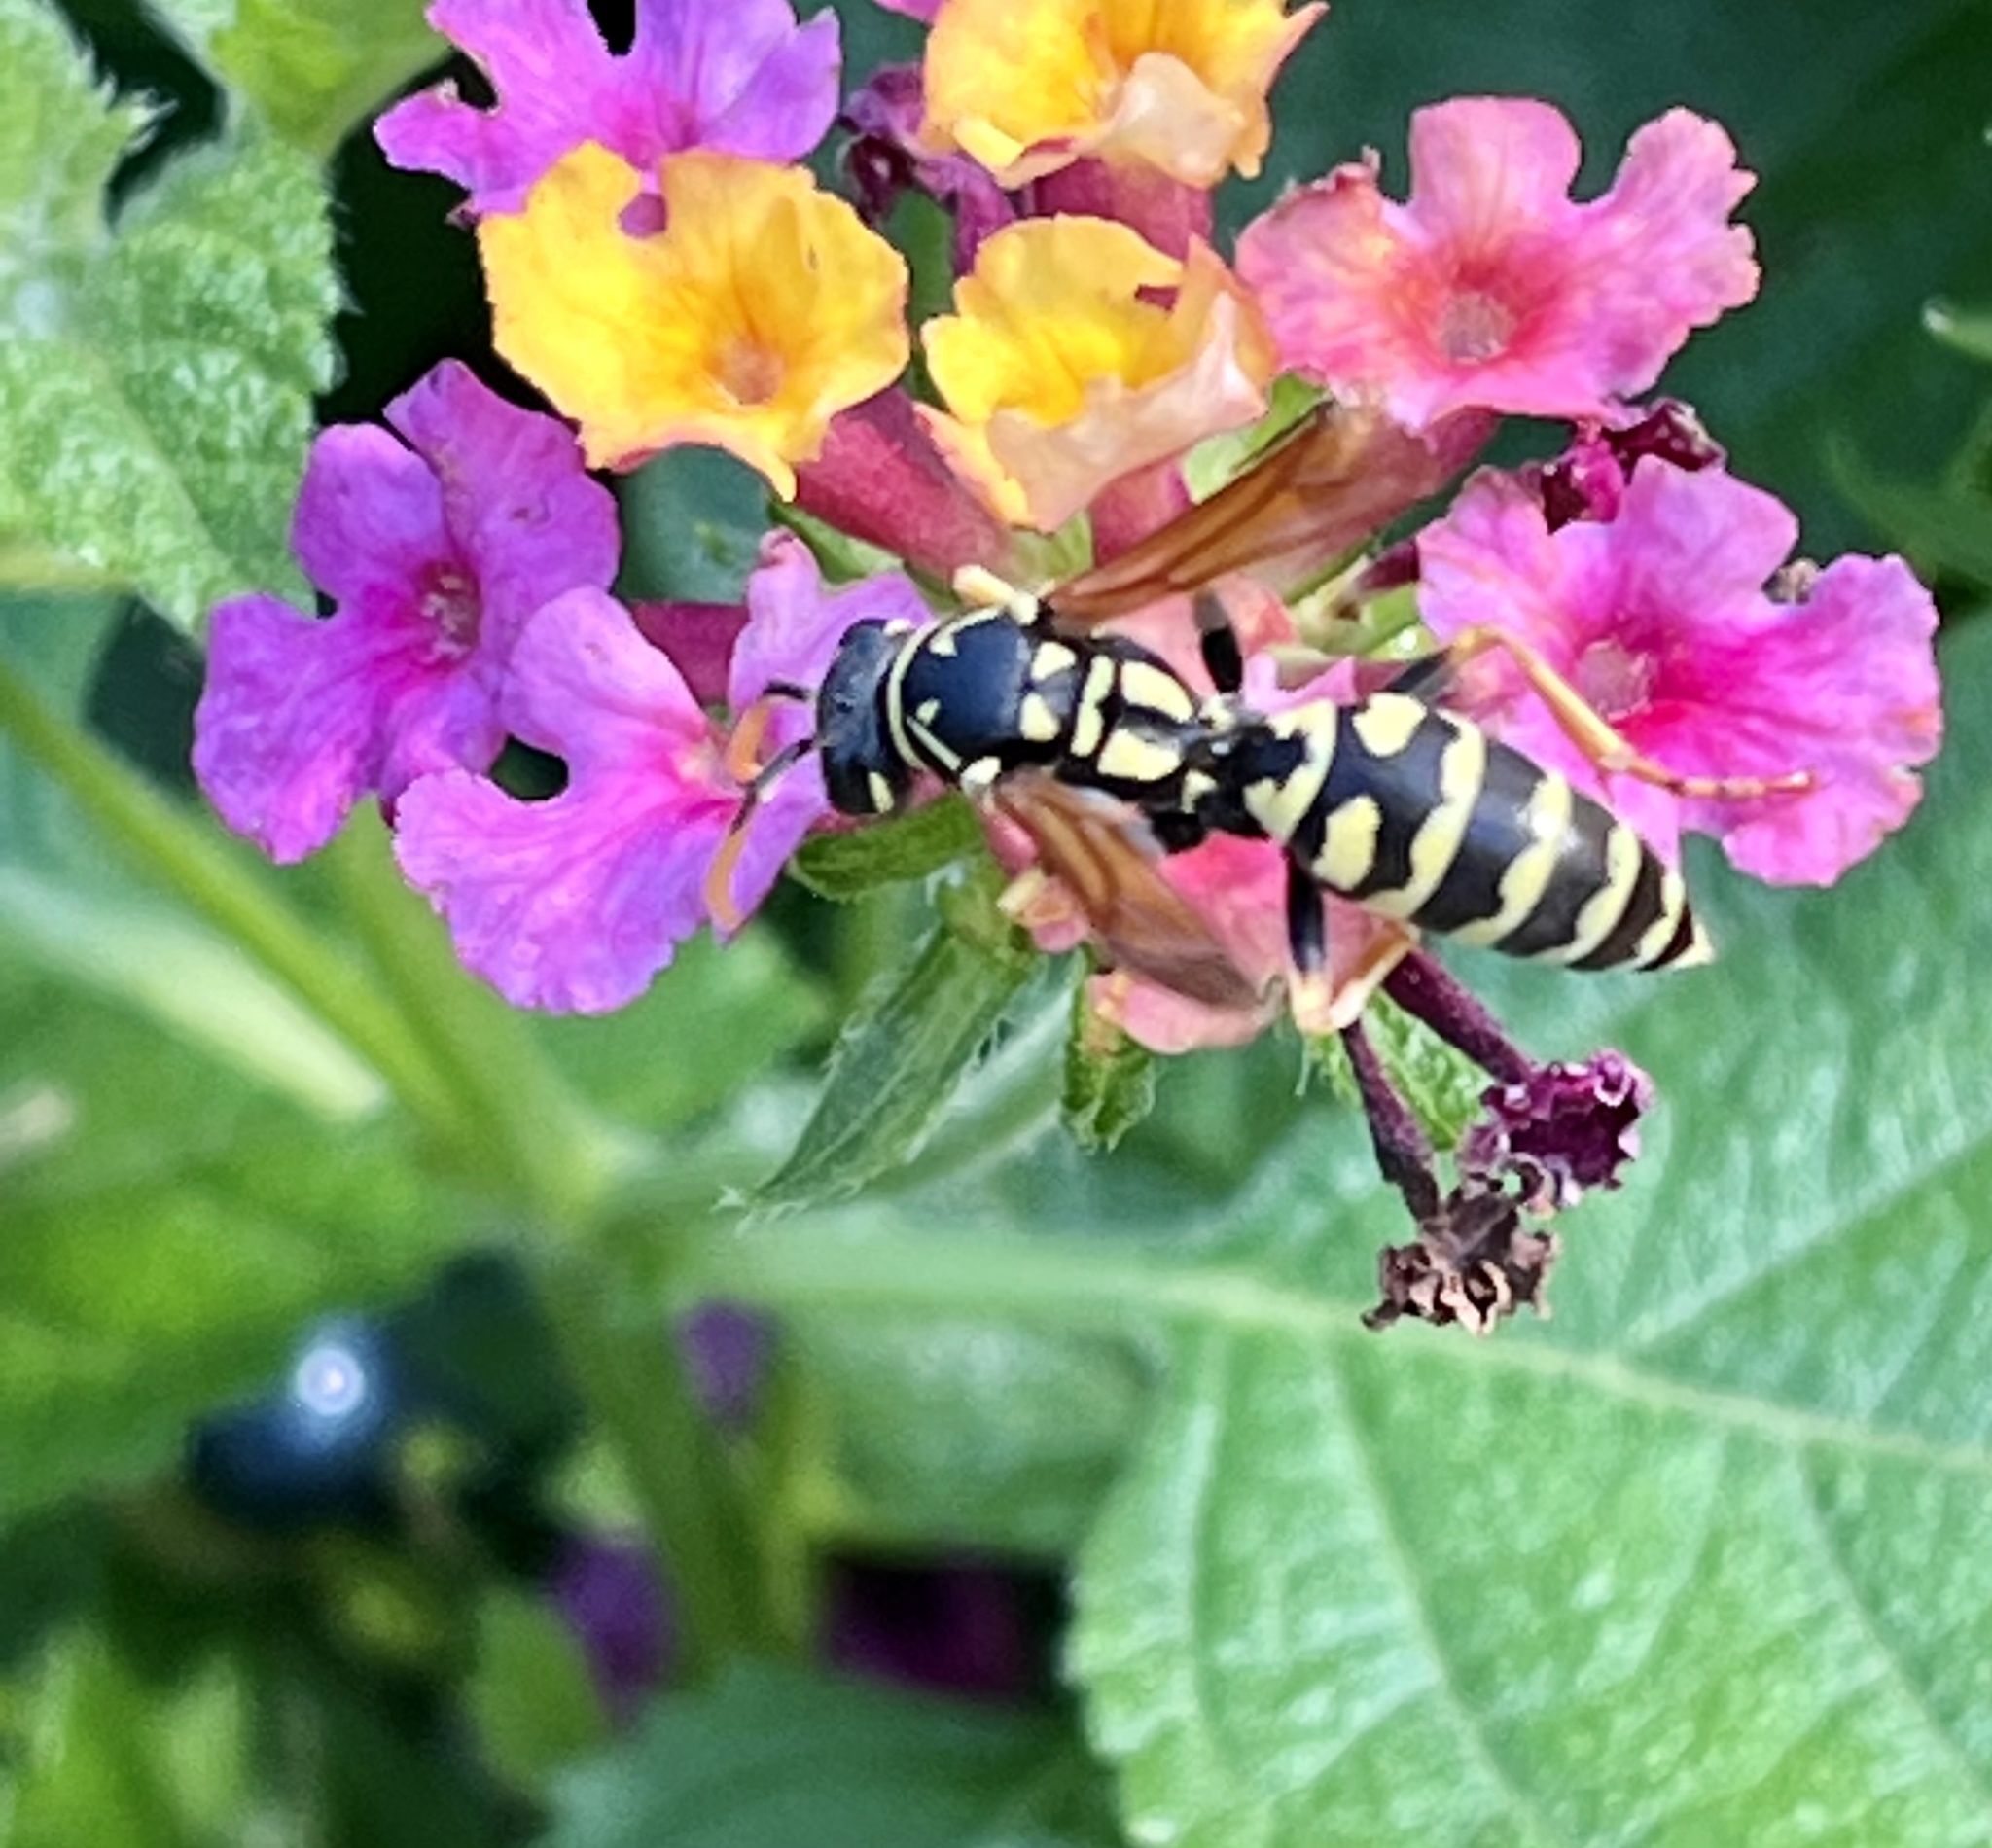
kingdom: Animalia
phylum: Arthropoda
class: Insecta
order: Hymenoptera
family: Eumenidae
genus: Polistes
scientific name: Polistes dominula
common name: Paper wasp
